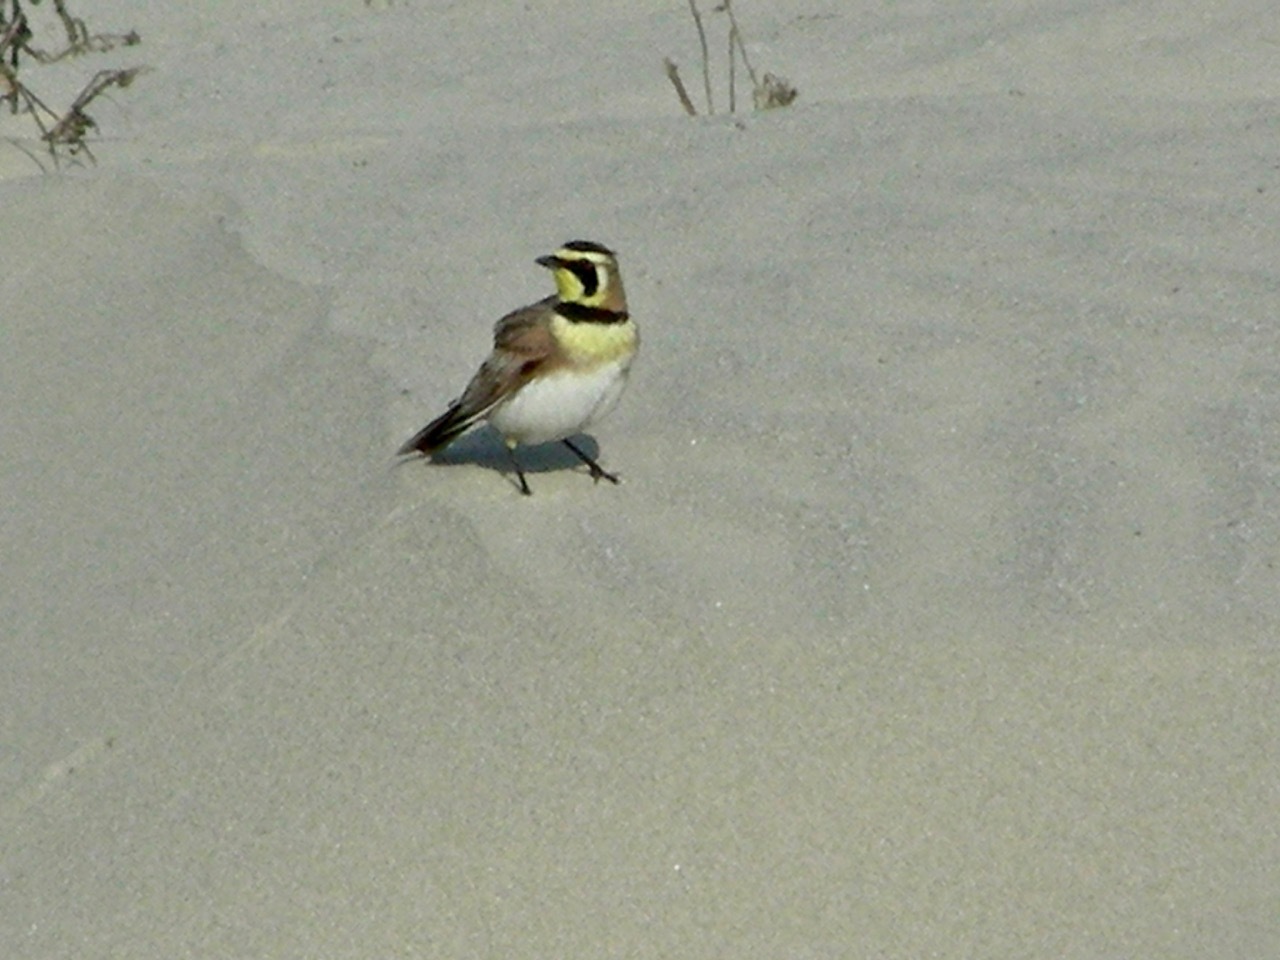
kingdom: Animalia
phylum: Chordata
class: Aves
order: Passeriformes
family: Alaudidae
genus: Eremophila
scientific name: Eremophila alpestris
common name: Horned lark
